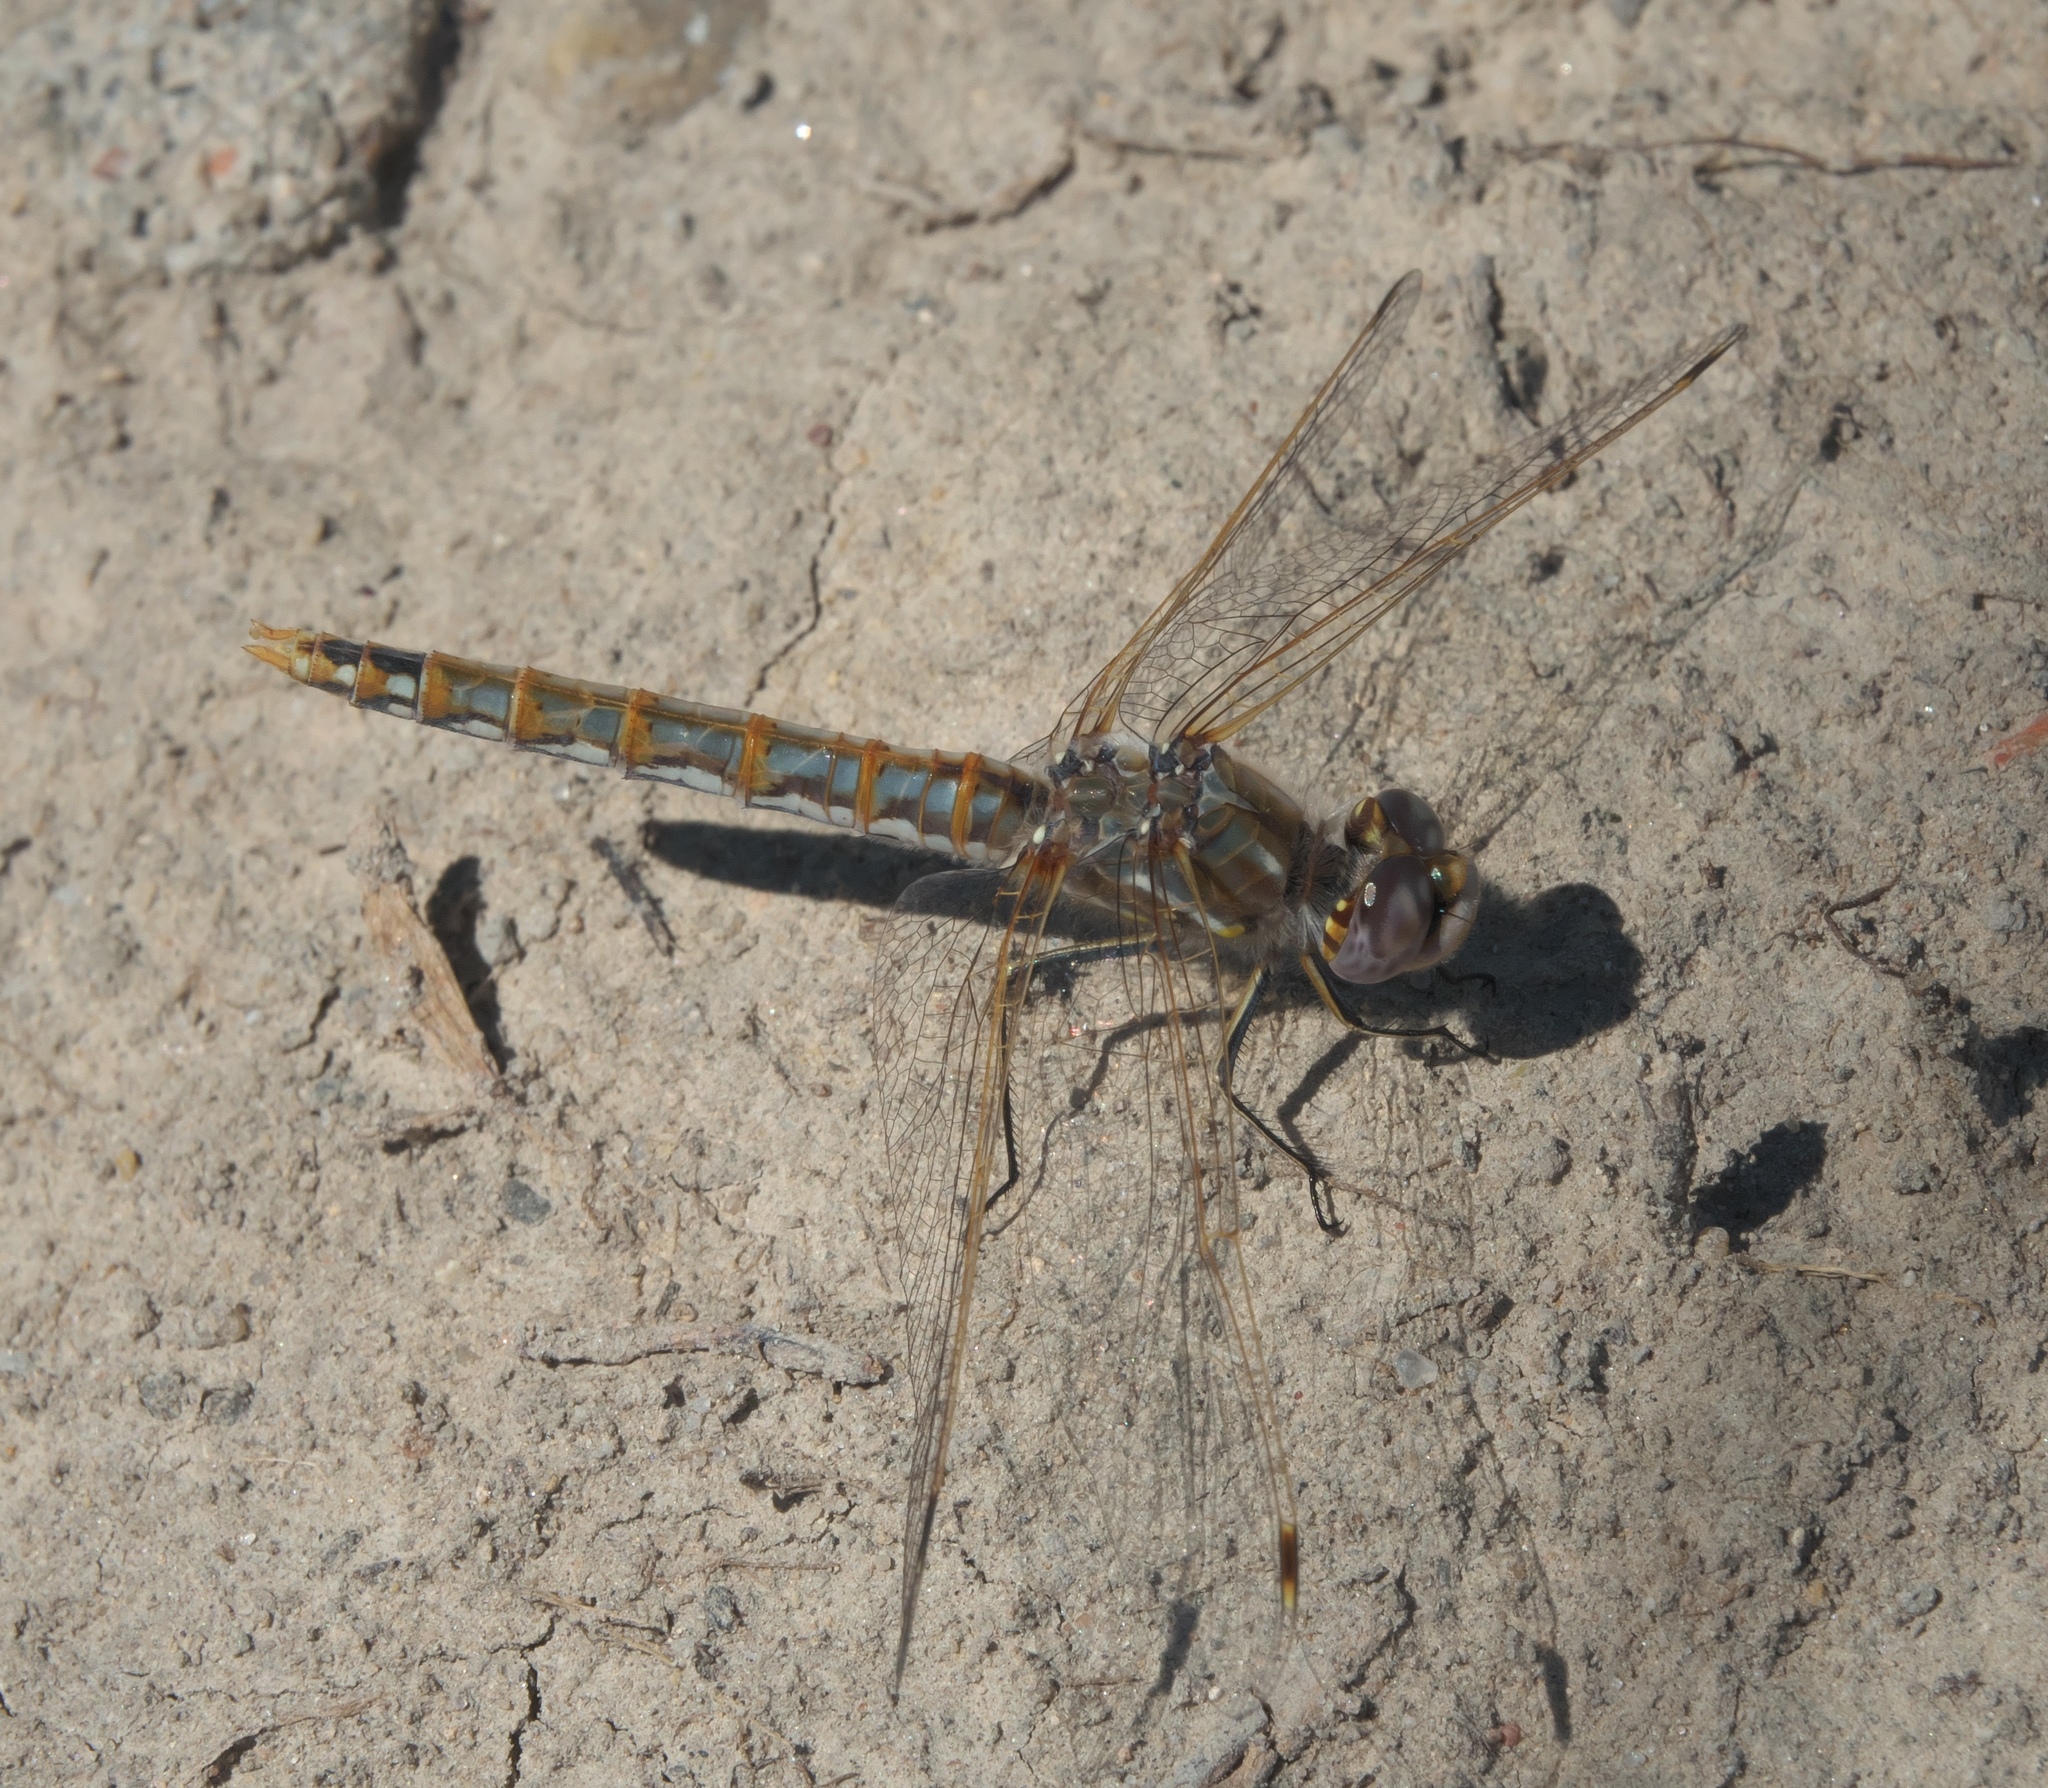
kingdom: Animalia
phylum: Arthropoda
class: Insecta
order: Odonata
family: Libellulidae
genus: Sympetrum
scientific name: Sympetrum corruptum
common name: Variegated meadowhawk
